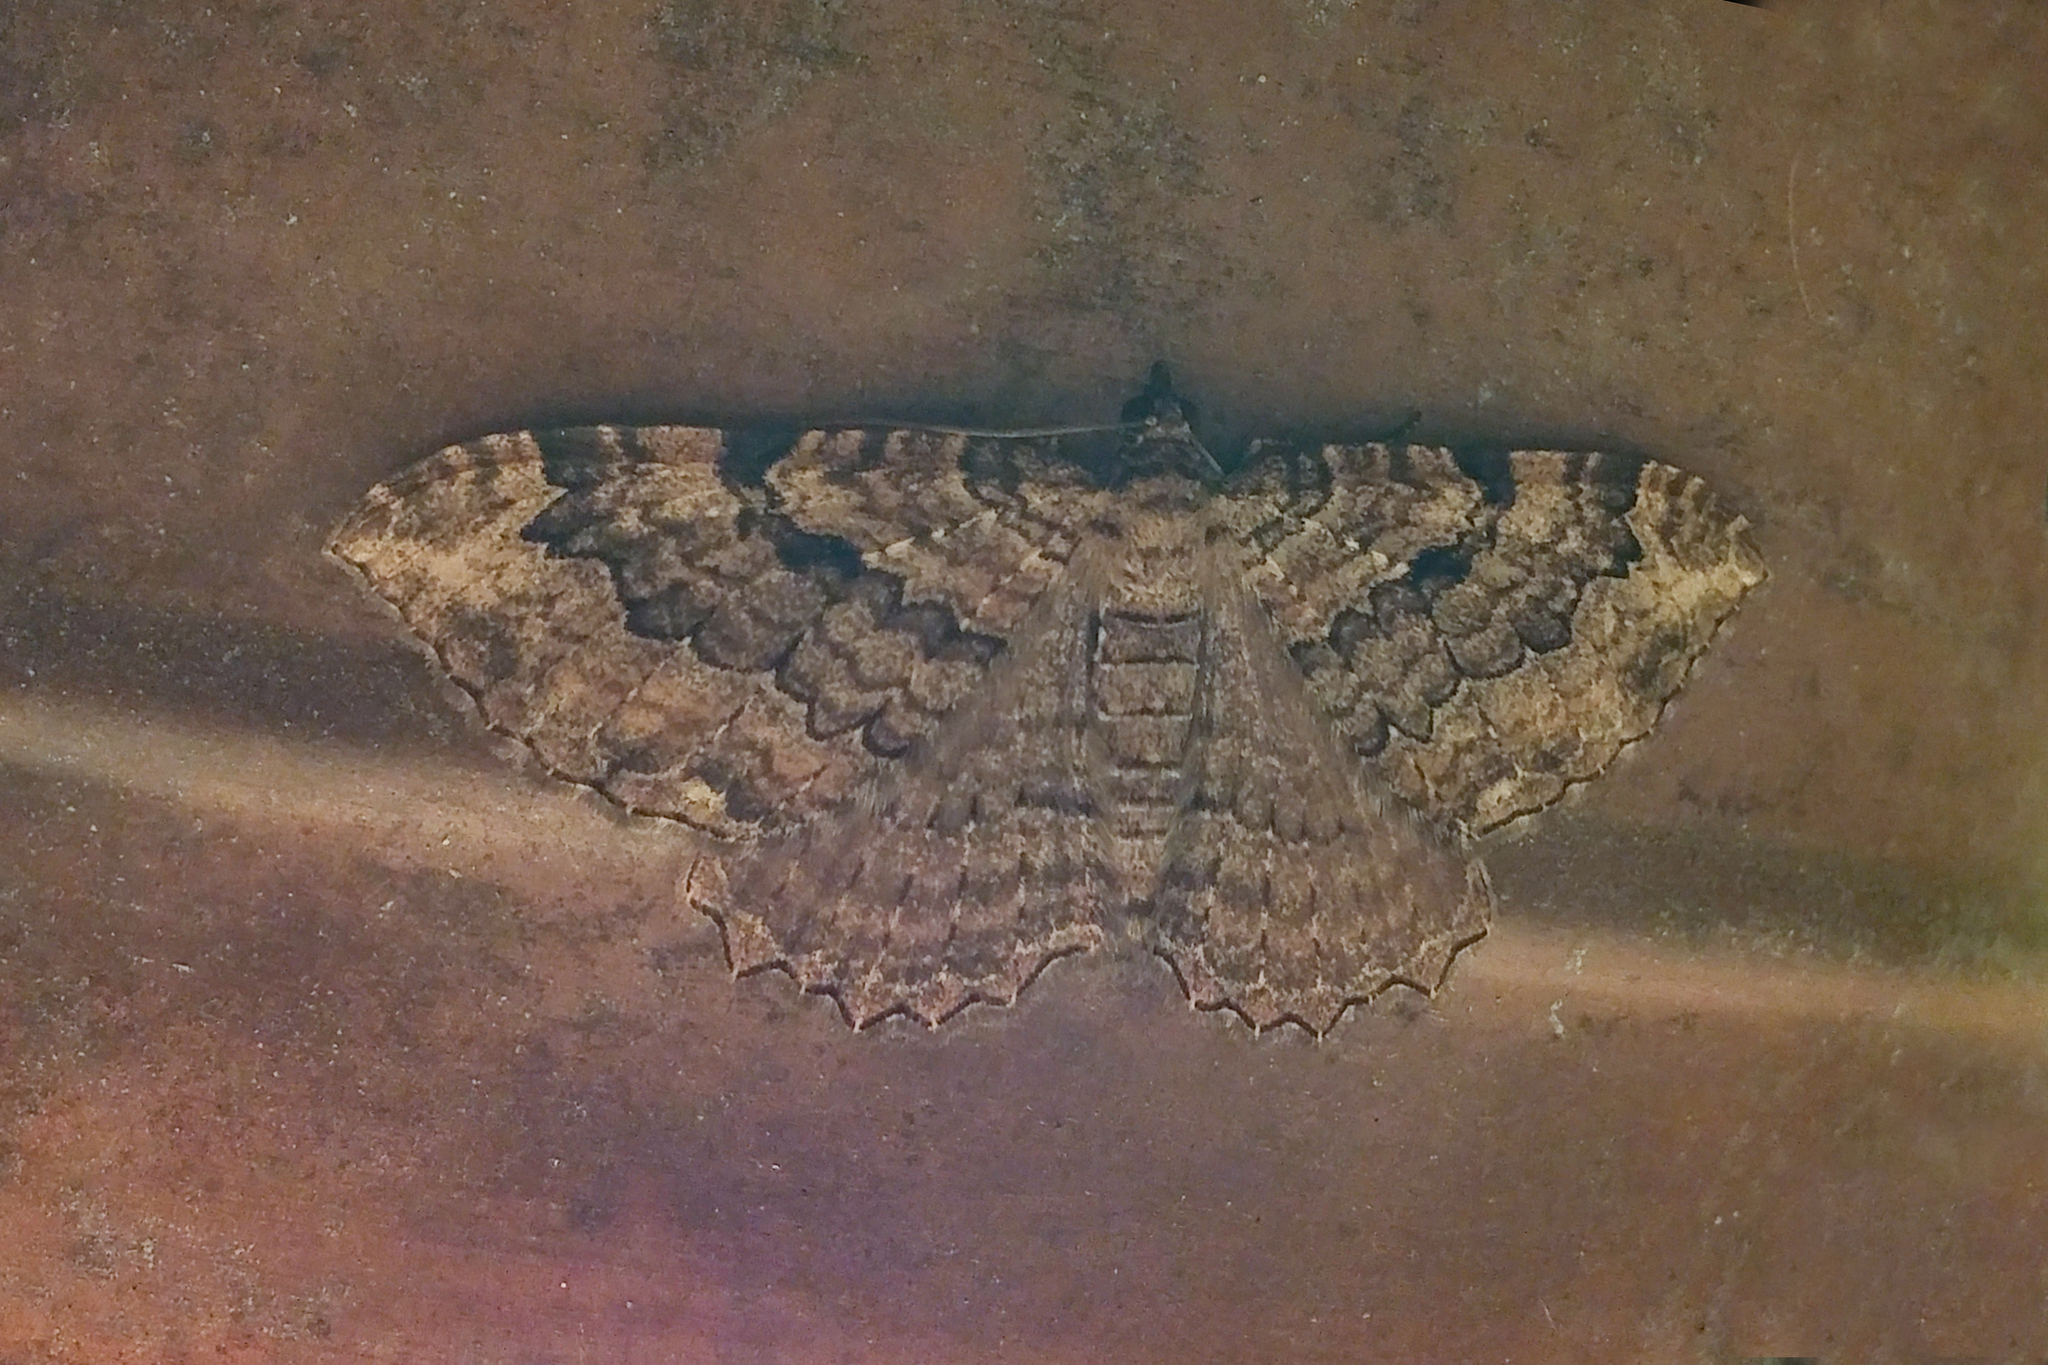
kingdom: Animalia
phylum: Arthropoda
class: Insecta
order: Lepidoptera
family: Geometridae
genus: Rheumaptera
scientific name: Rheumaptera
